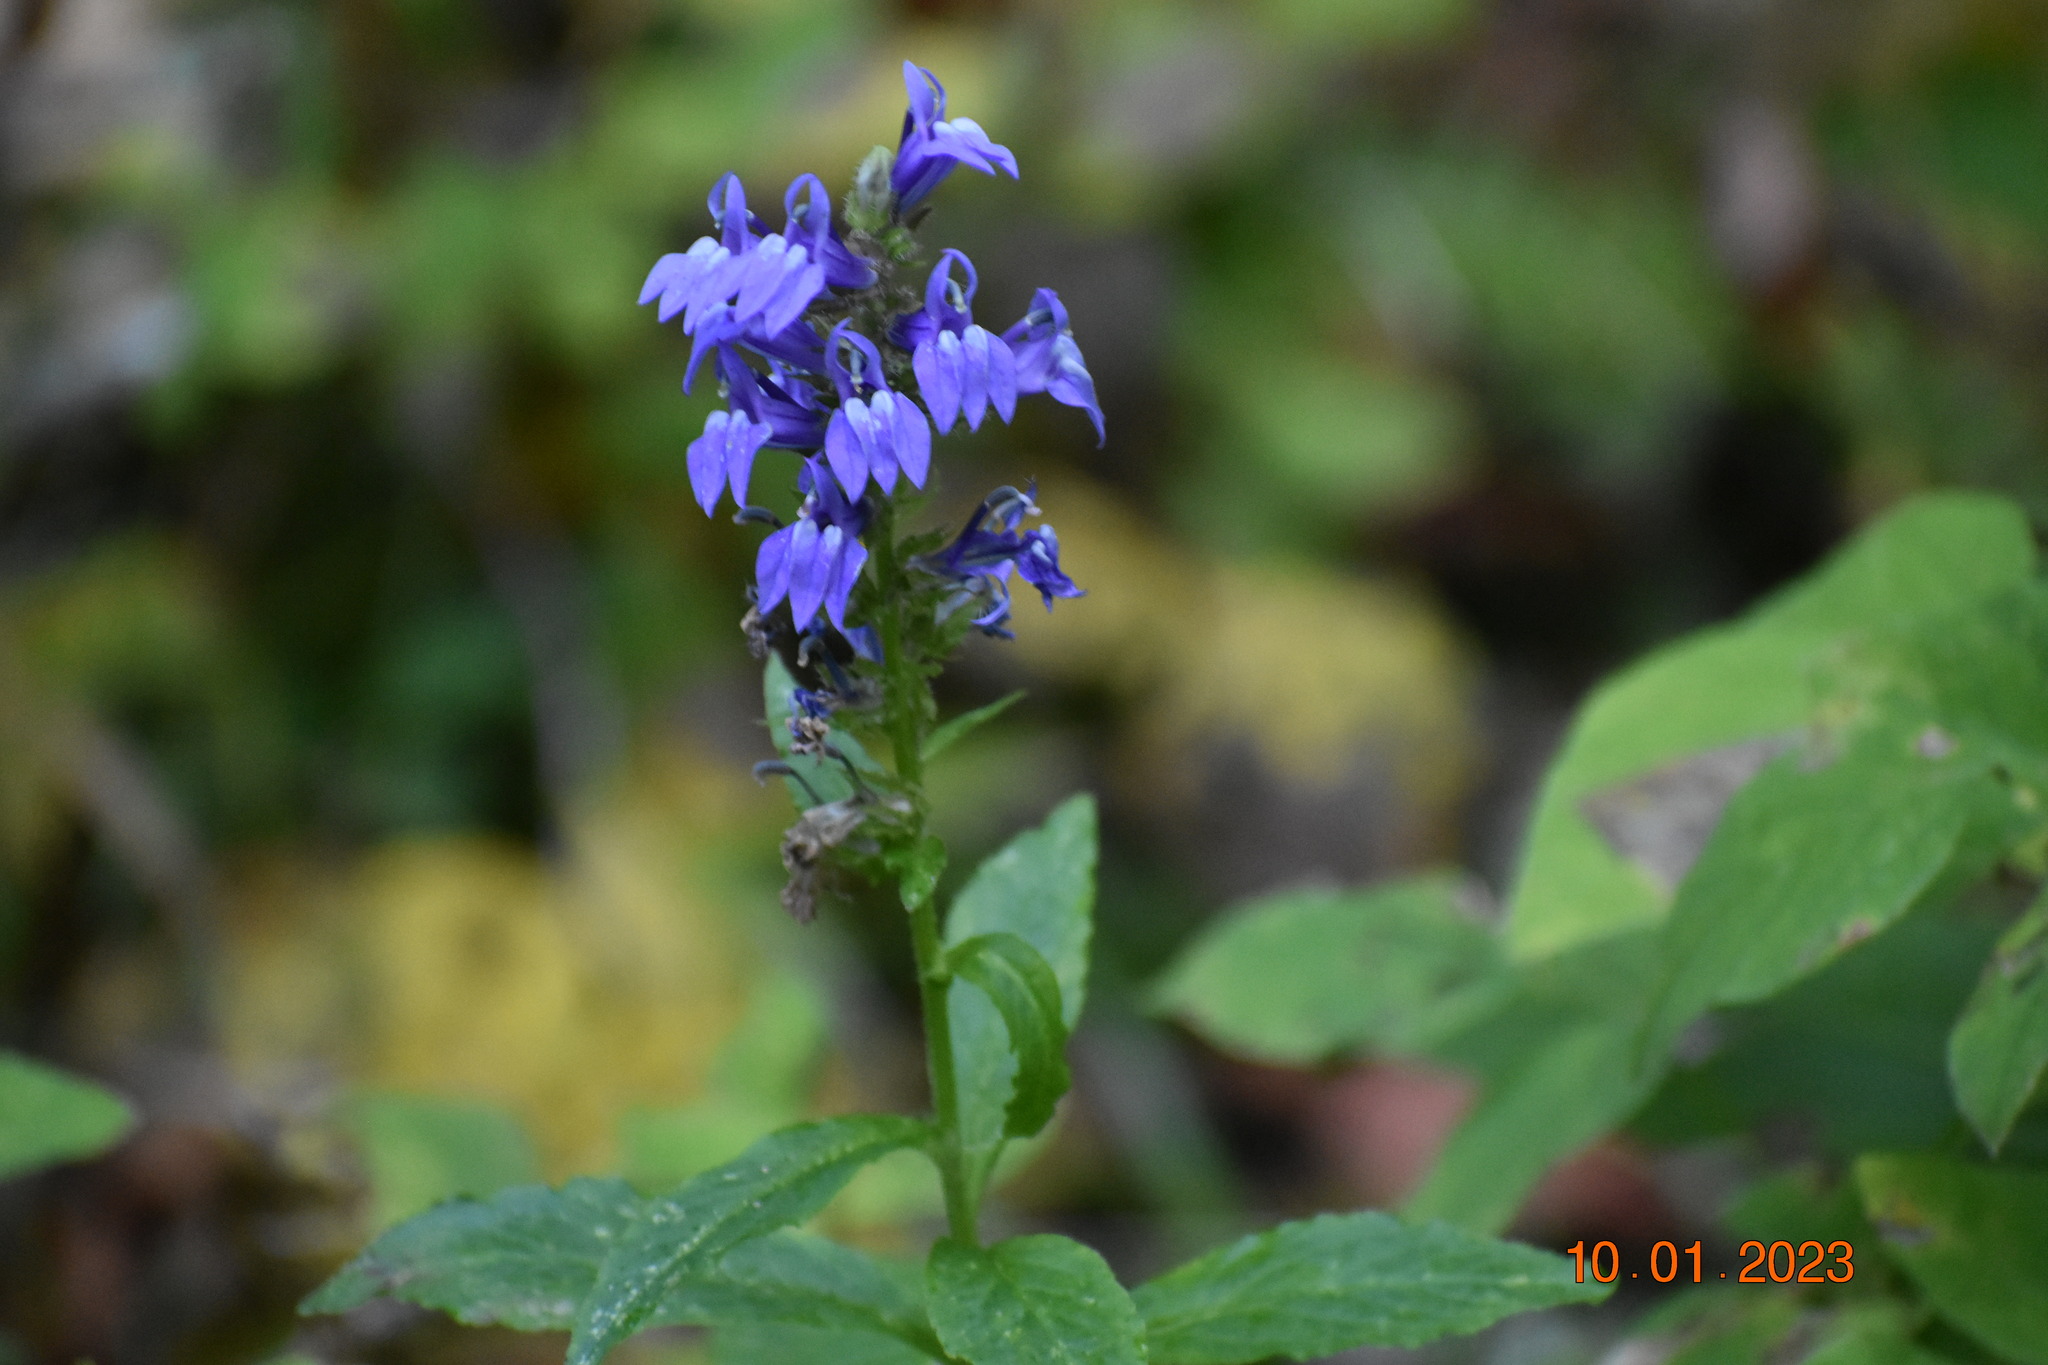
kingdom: Plantae
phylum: Tracheophyta
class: Magnoliopsida
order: Asterales
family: Campanulaceae
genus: Lobelia
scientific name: Lobelia siphilitica
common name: Great lobelia
